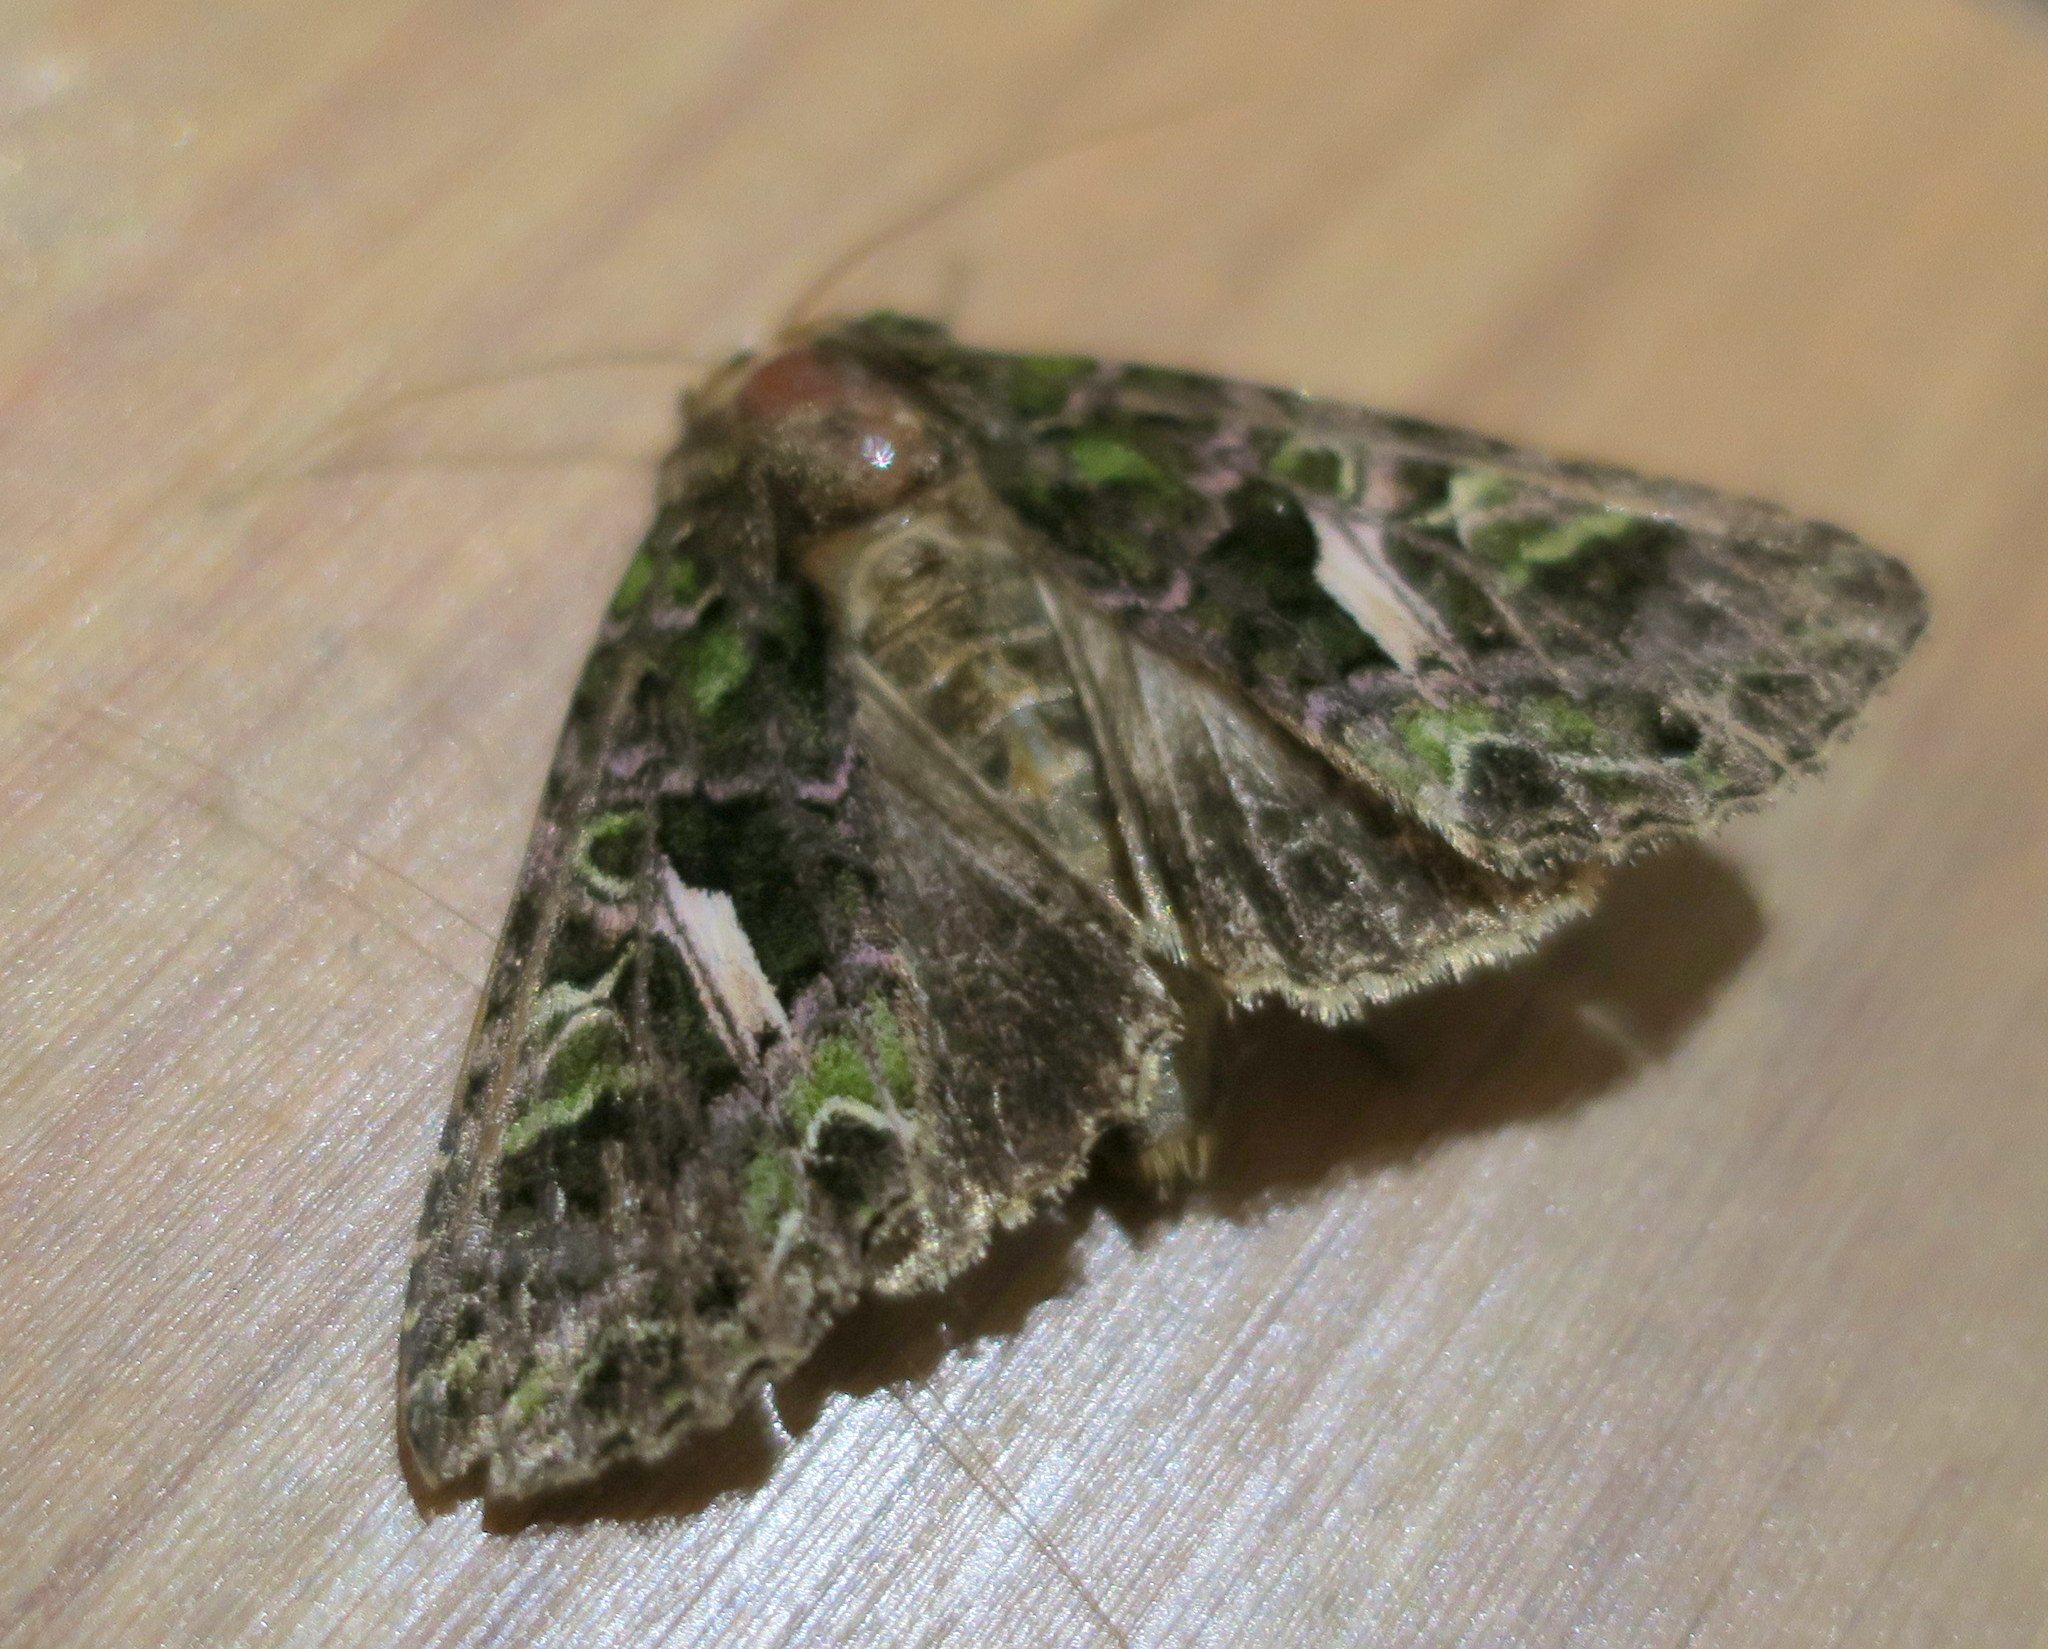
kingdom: Animalia
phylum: Arthropoda
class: Insecta
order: Lepidoptera
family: Noctuidae
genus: Trachea
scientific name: Trachea atriplicis
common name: Orache moth
